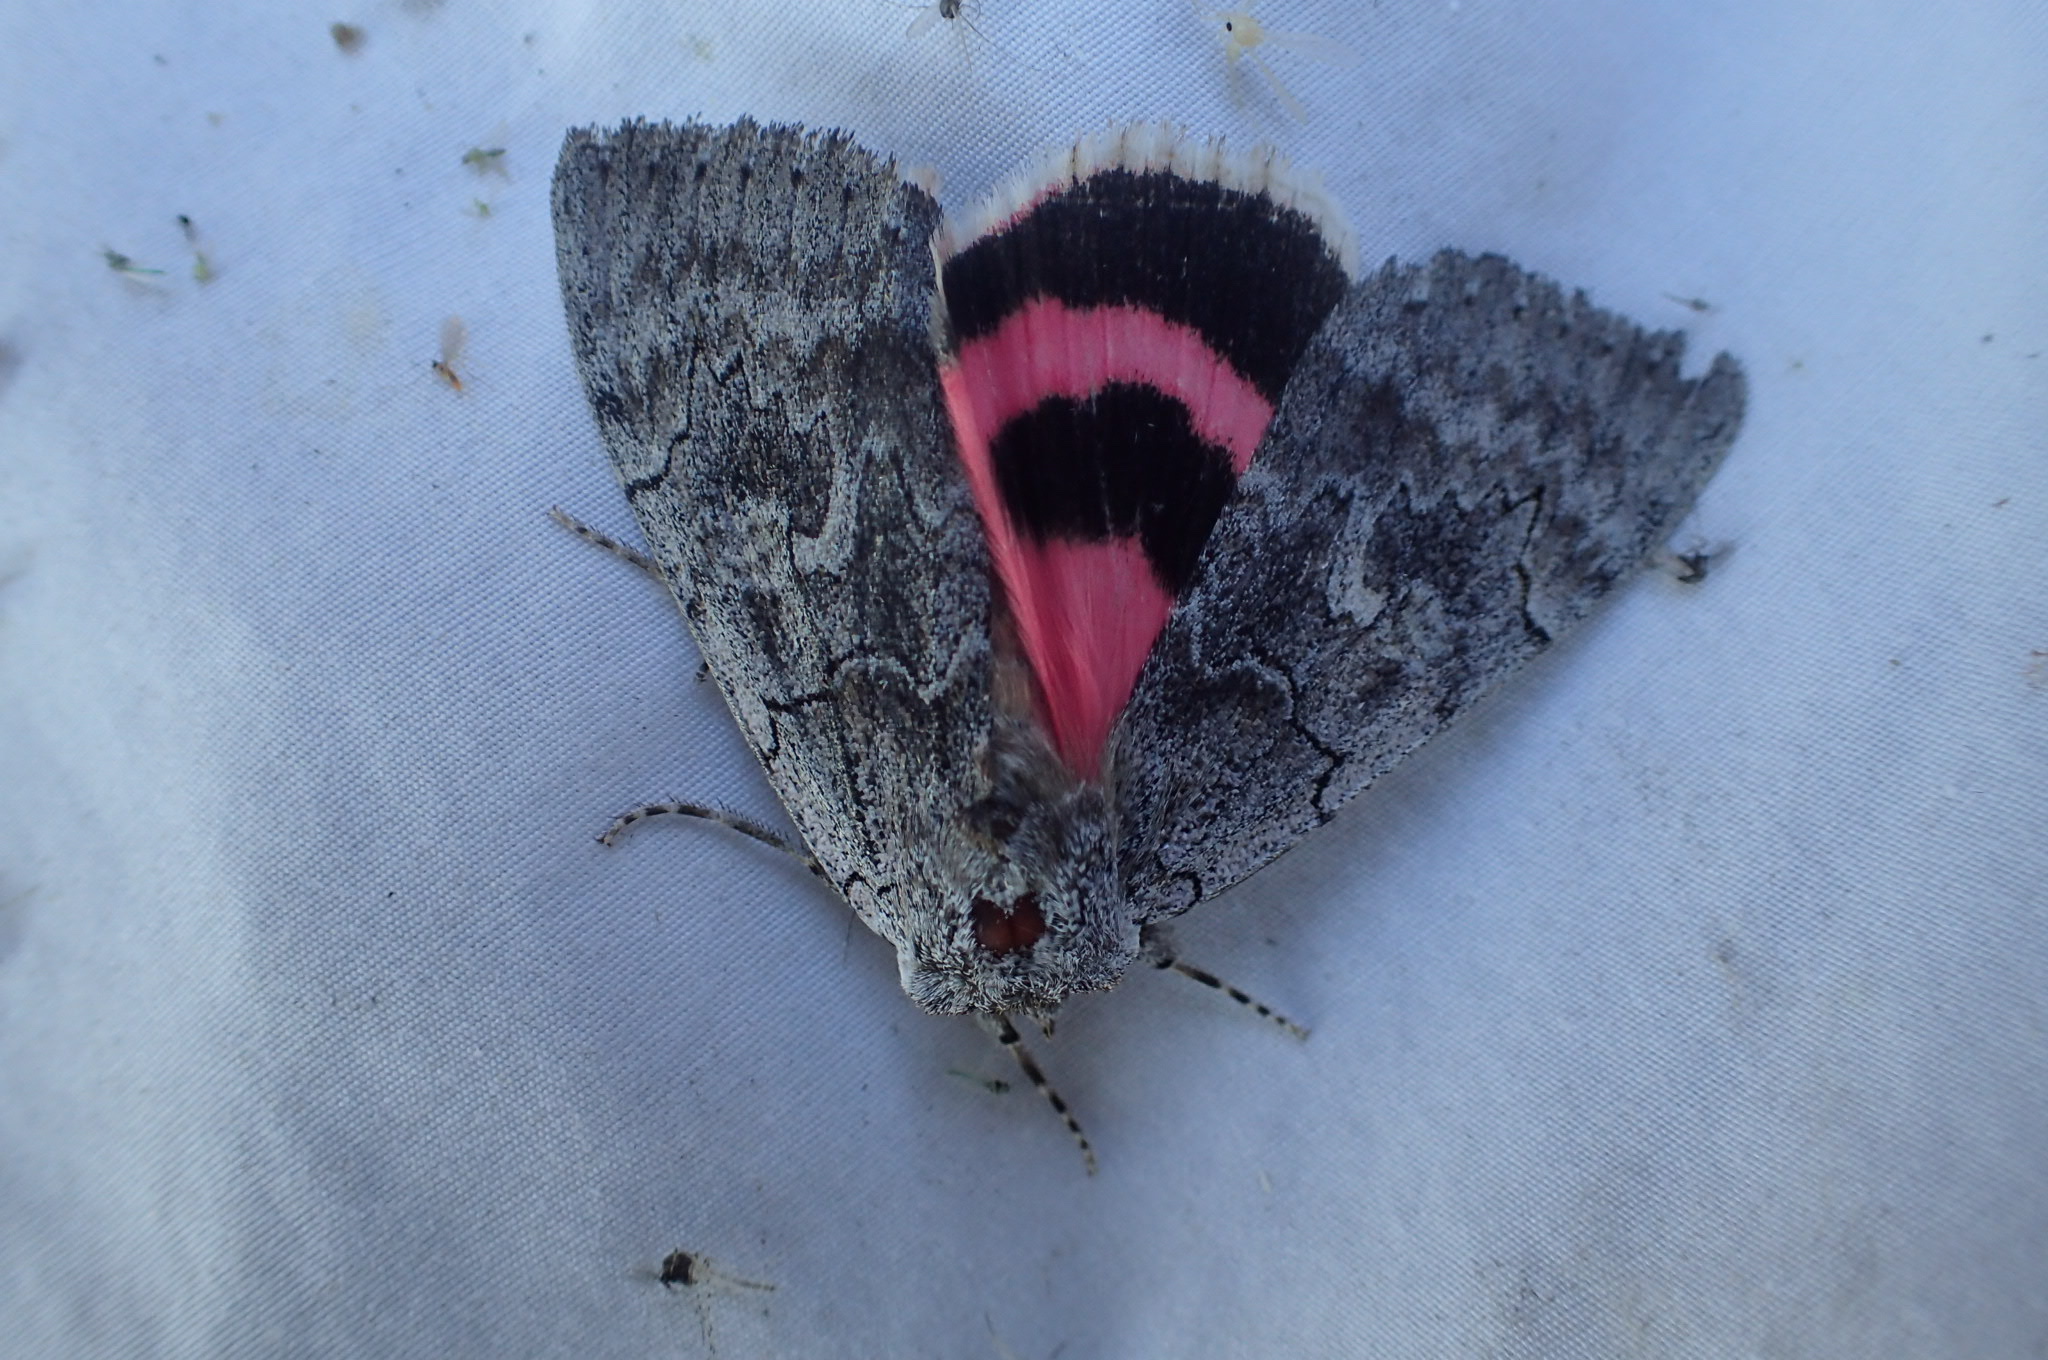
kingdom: Animalia
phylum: Arthropoda
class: Insecta
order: Lepidoptera
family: Erebidae
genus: Catocala
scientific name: Catocala concumbens
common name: Pink underwing
